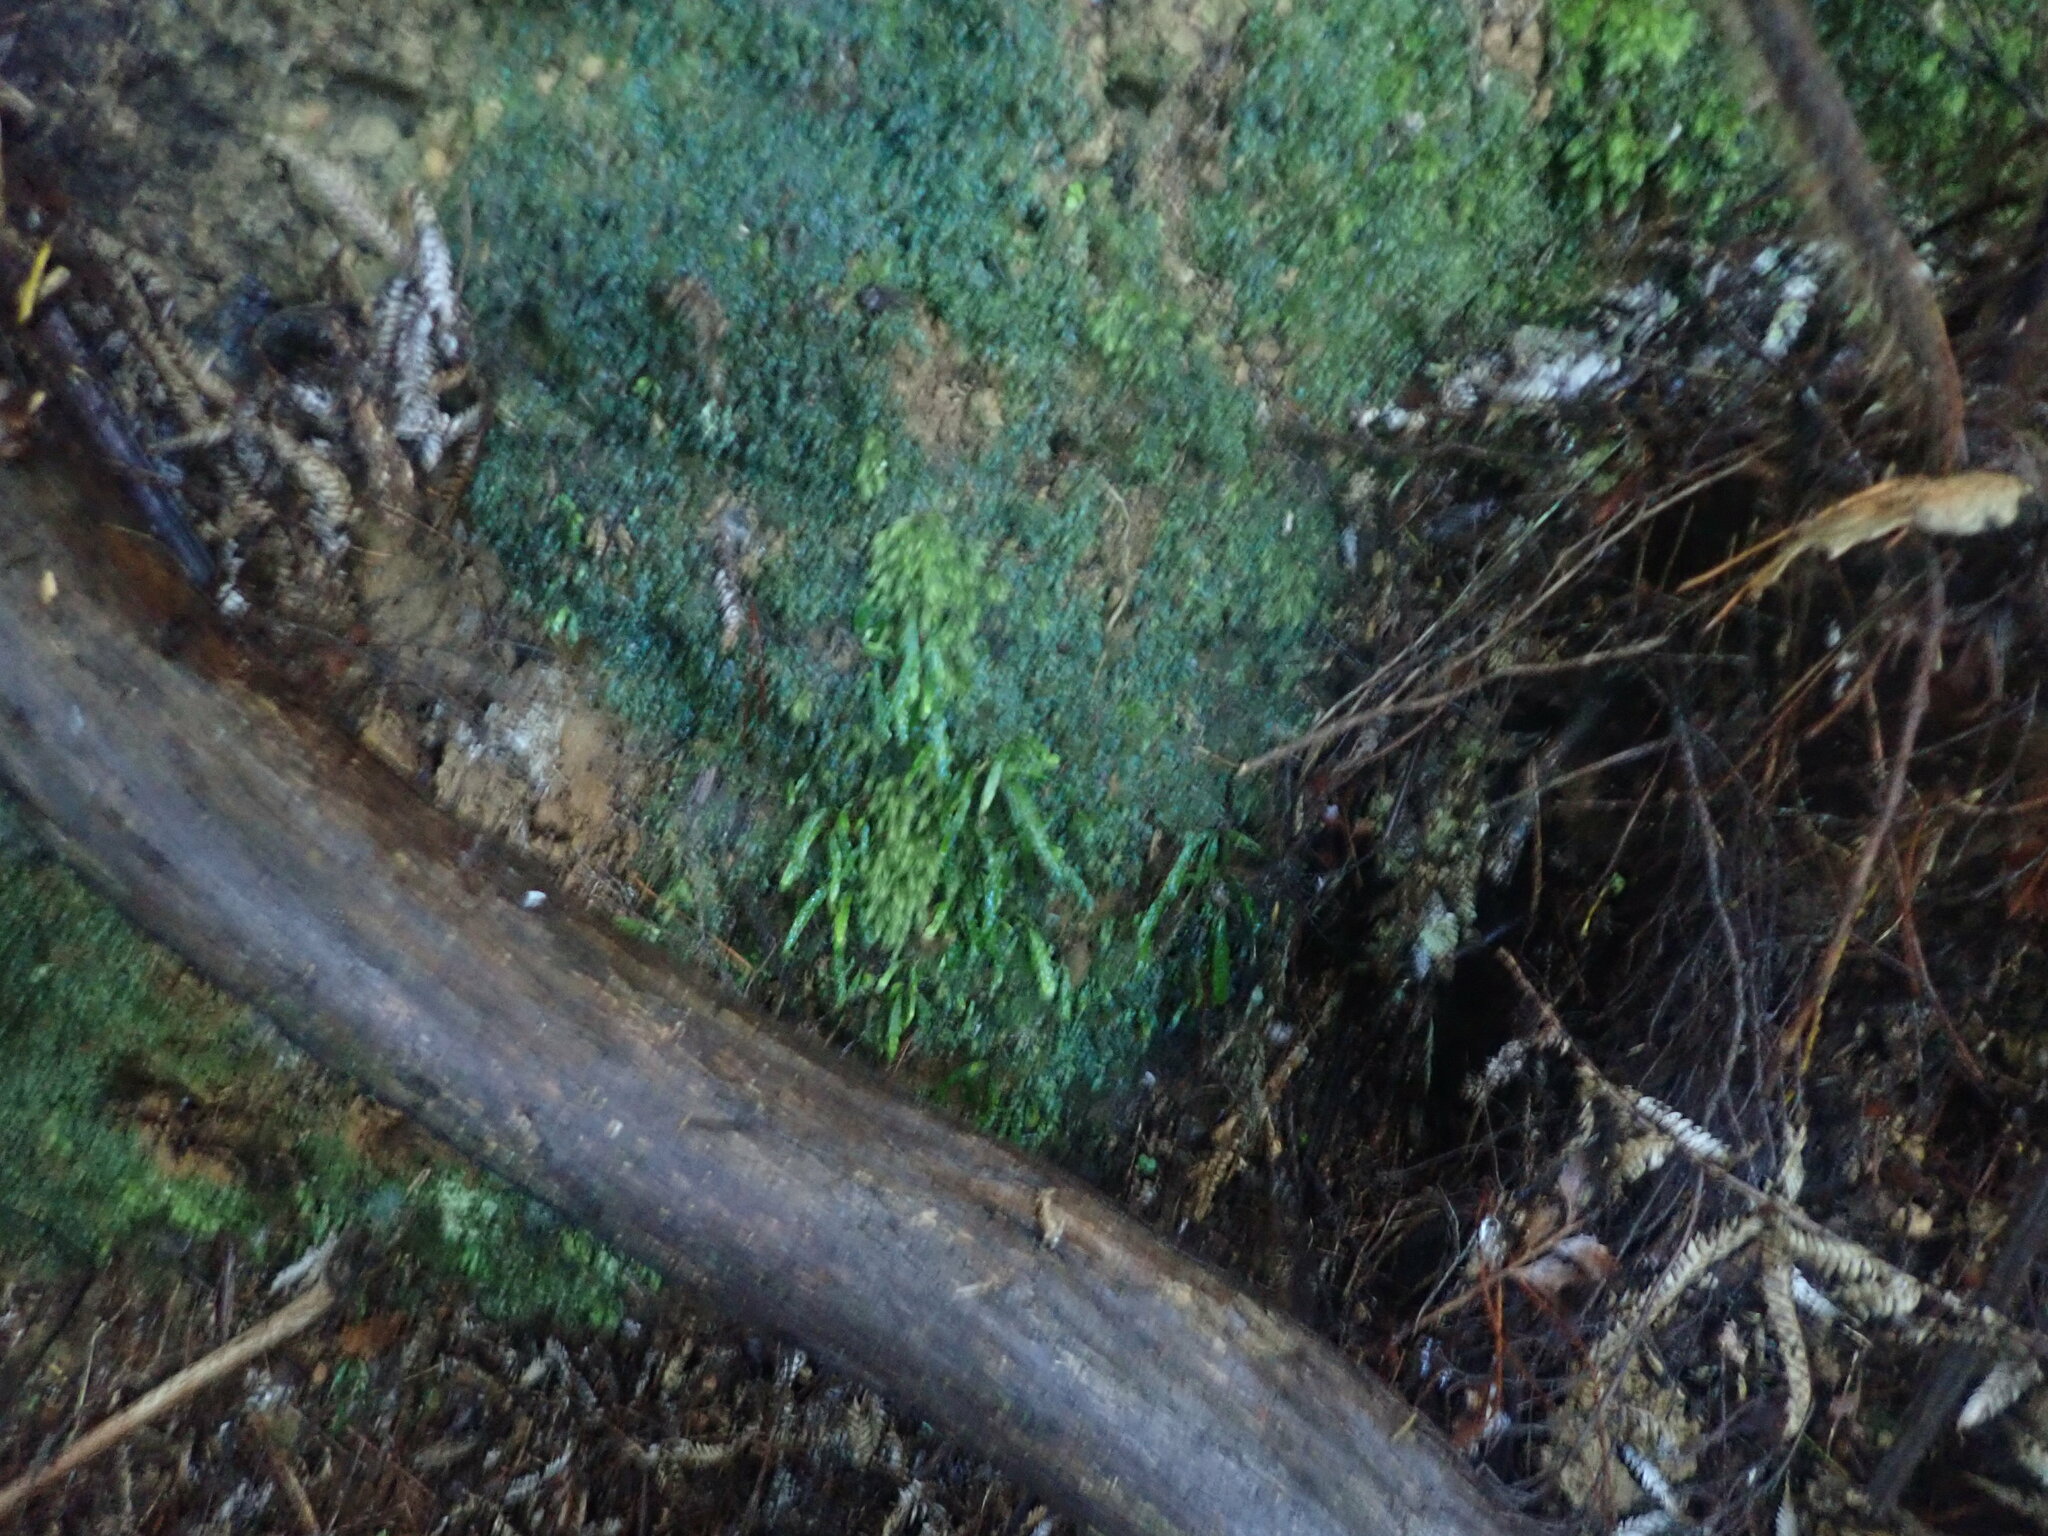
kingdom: Plantae
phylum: Tracheophyta
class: Polypodiopsida
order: Polypodiales
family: Polypodiaceae
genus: Notogrammitis
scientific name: Notogrammitis ciliata
